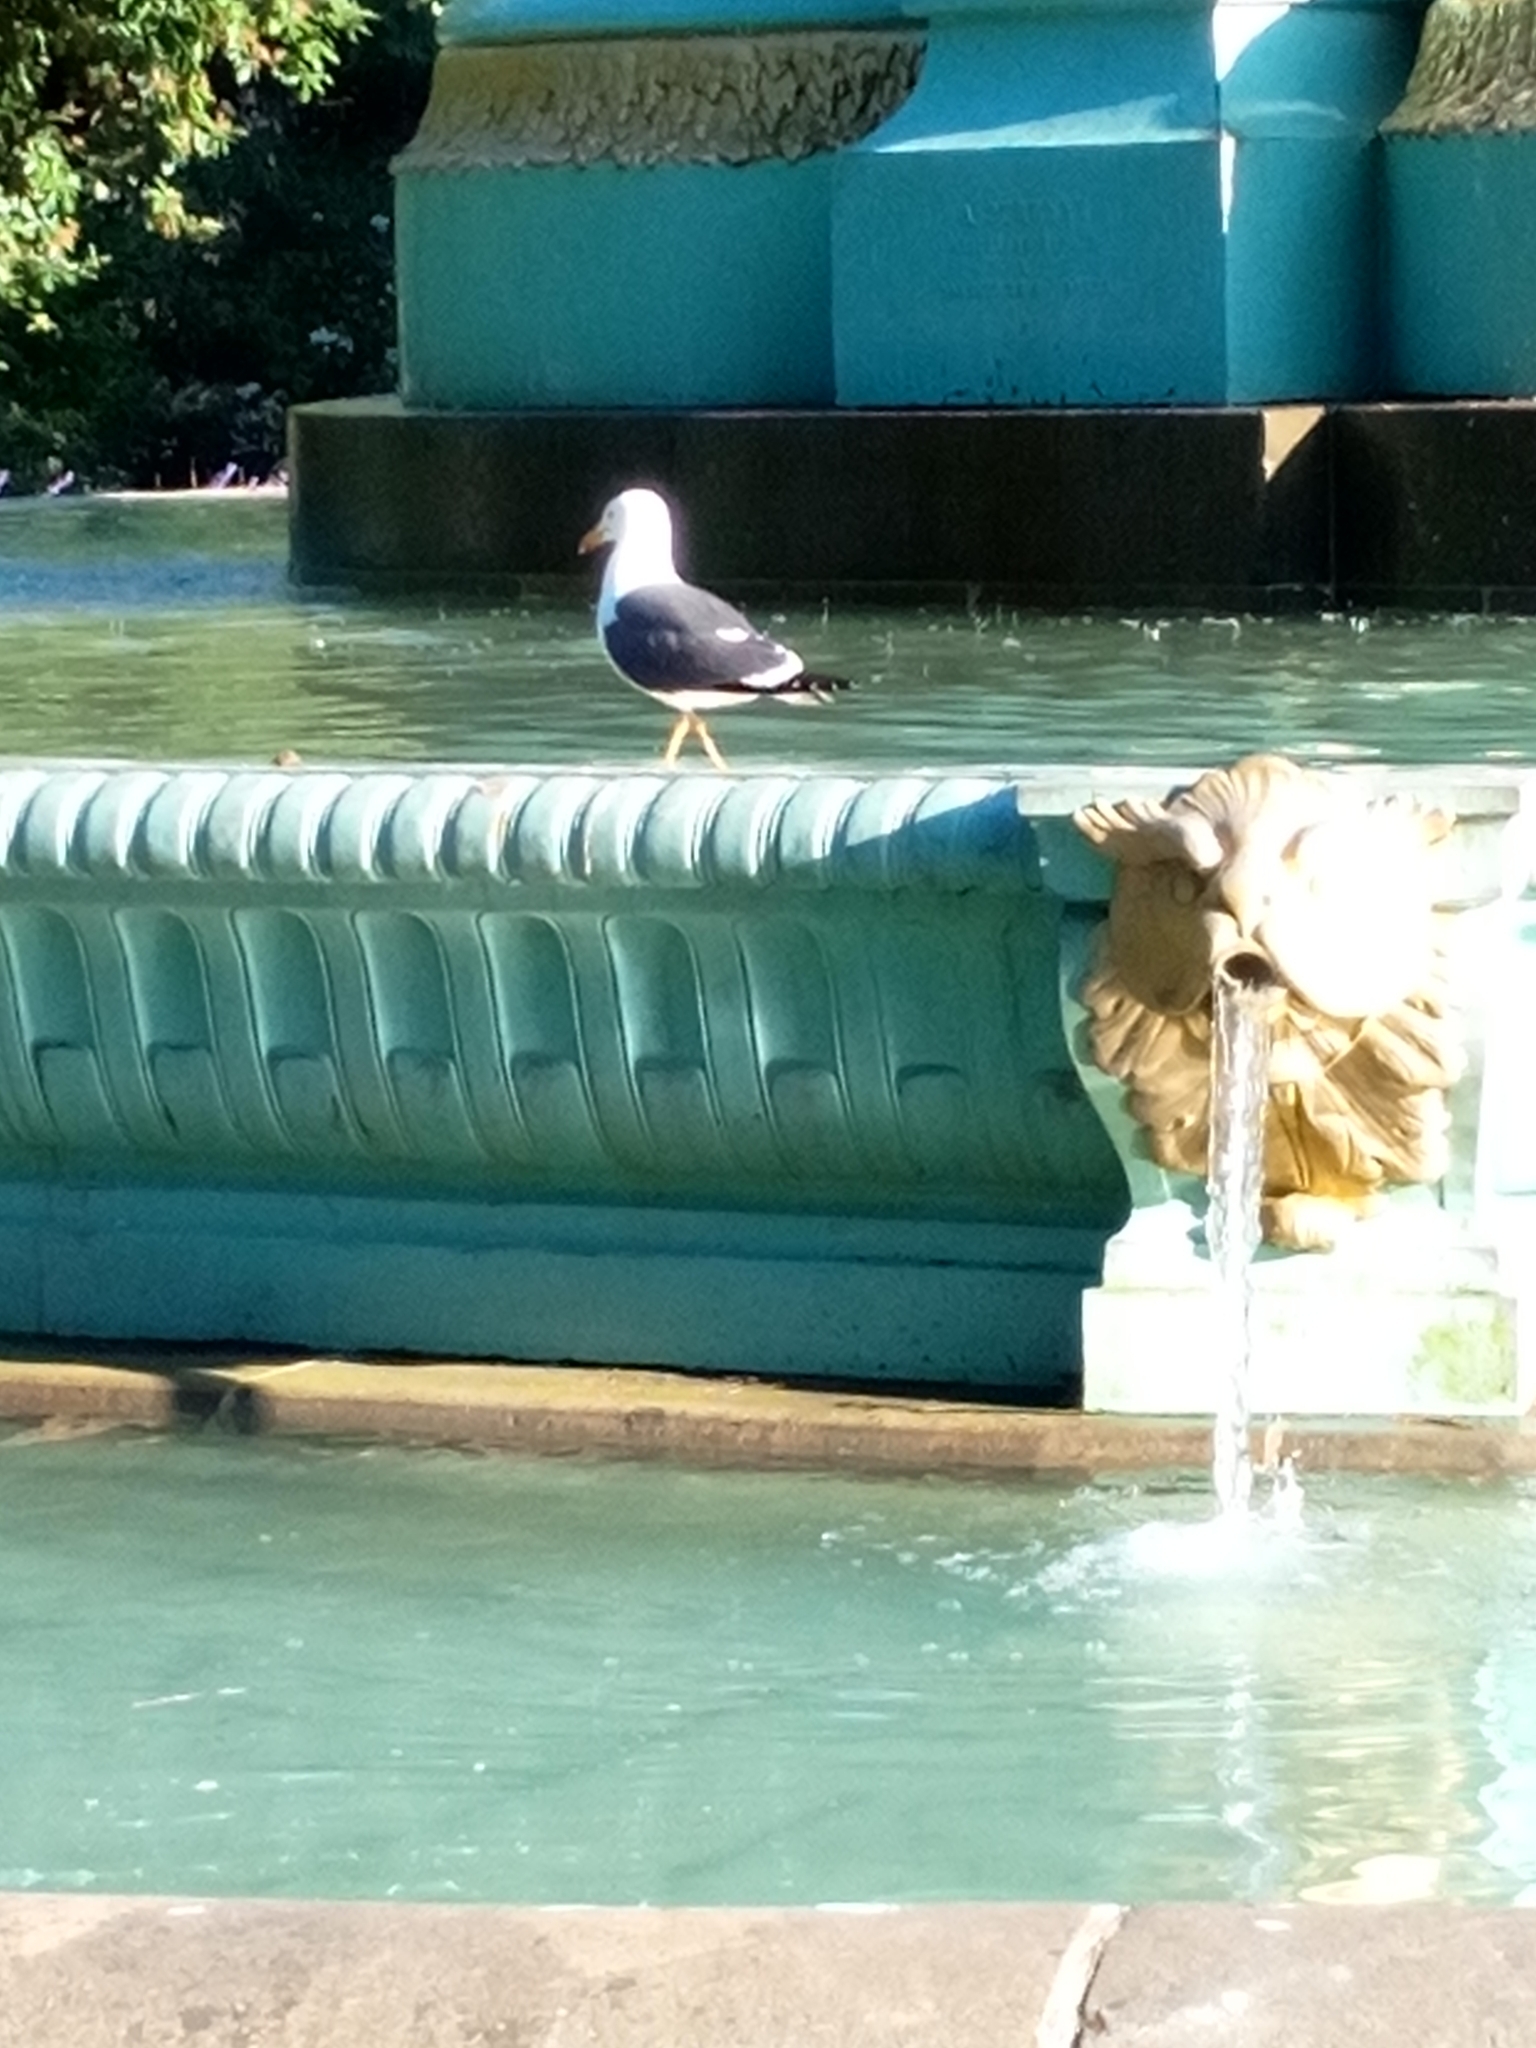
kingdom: Animalia
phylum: Chordata
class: Aves
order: Charadriiformes
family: Laridae
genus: Larus
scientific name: Larus fuscus
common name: Lesser black-backed gull
